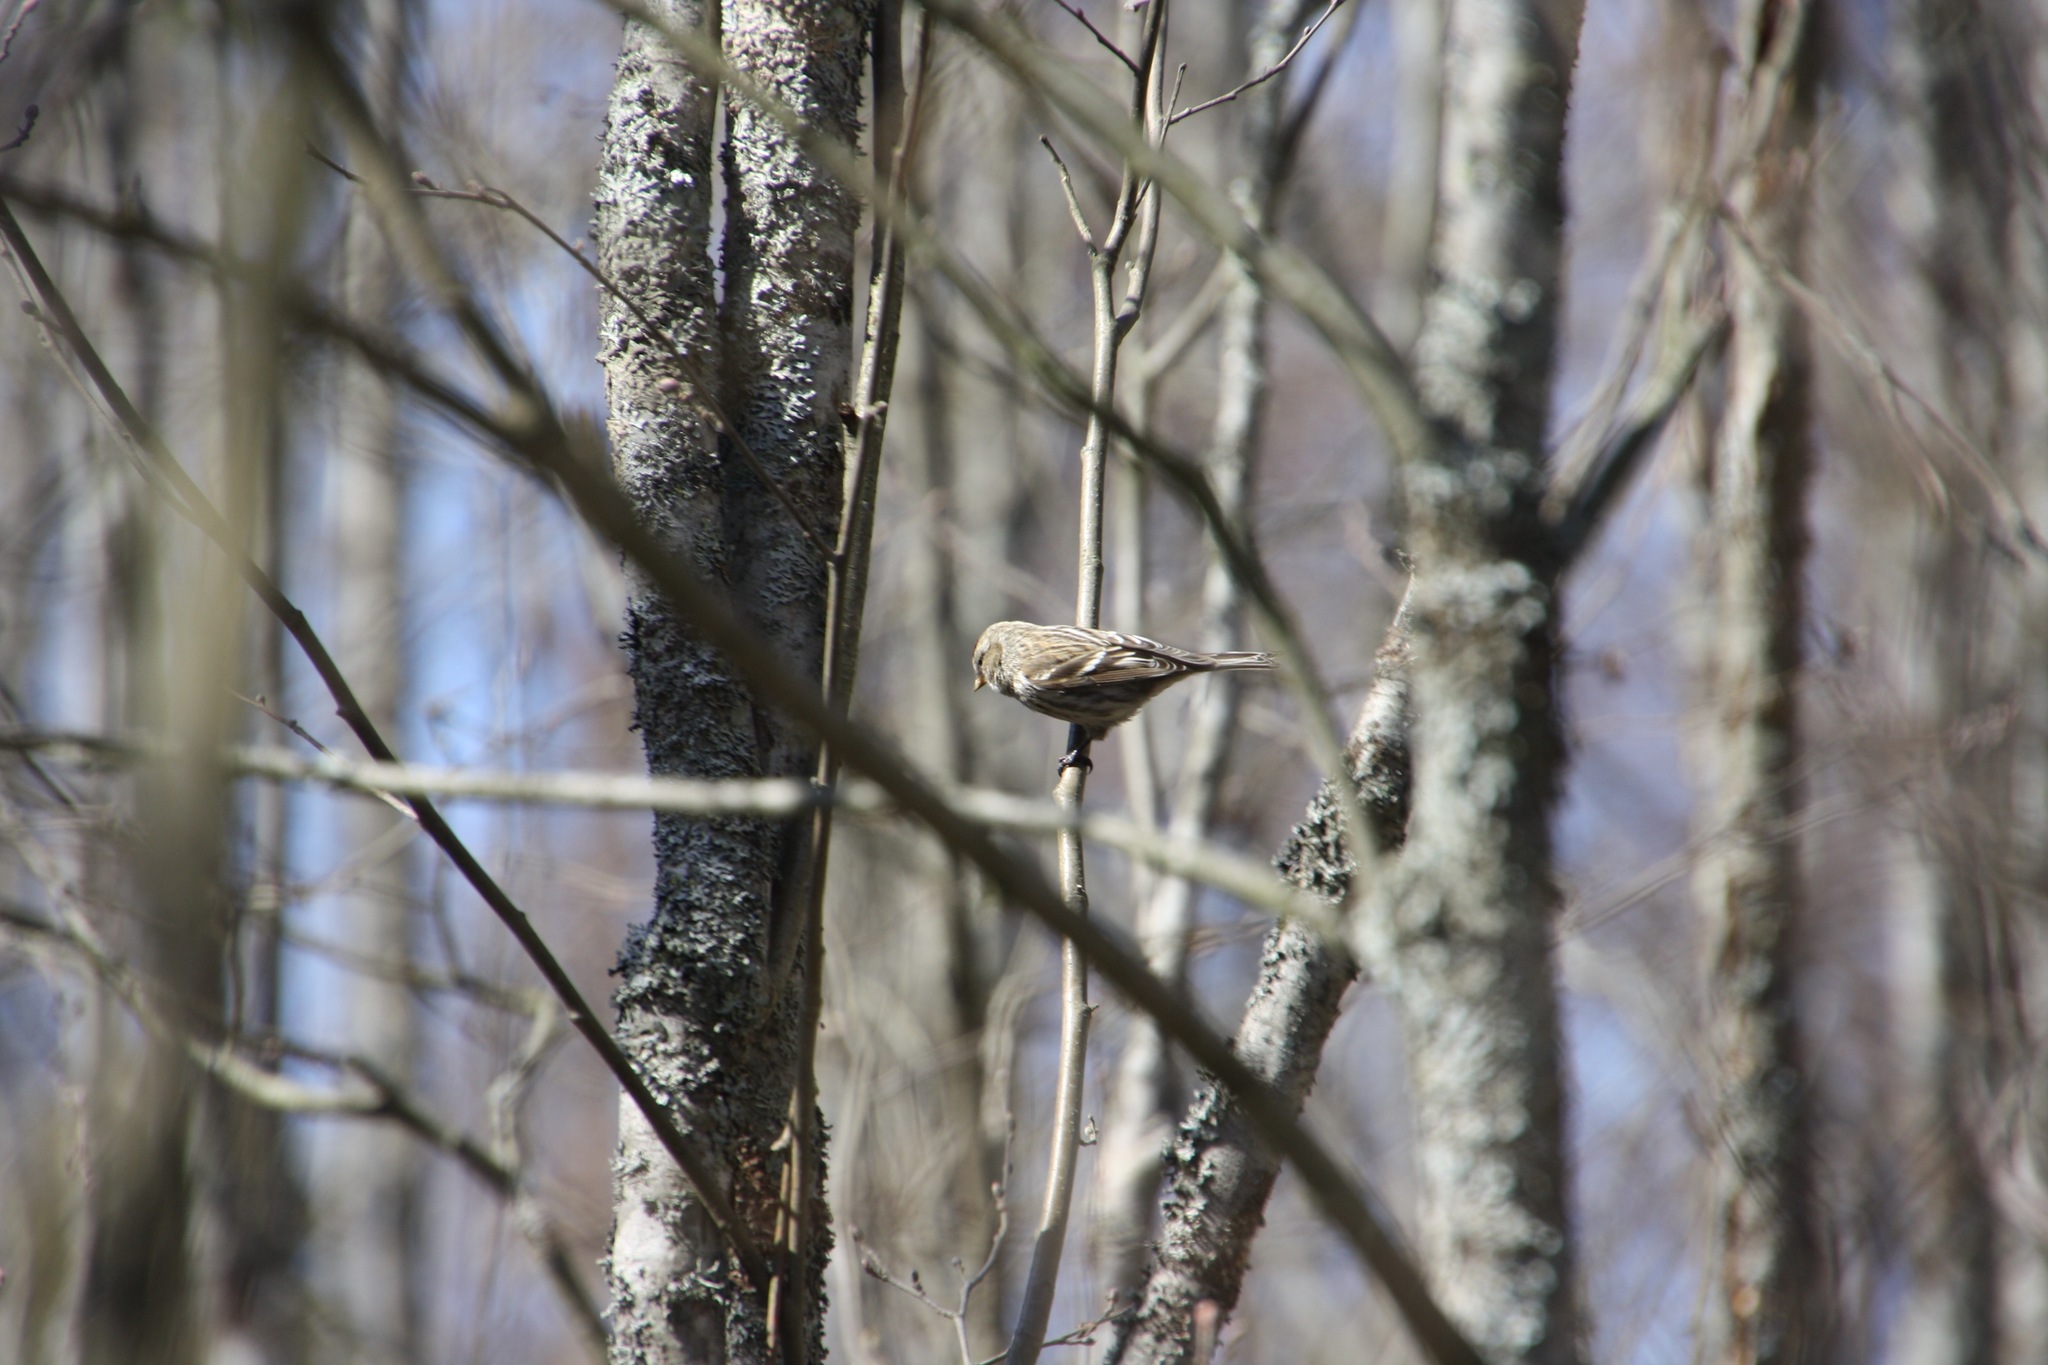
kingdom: Animalia
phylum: Chordata
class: Aves
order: Passeriformes
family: Fringillidae
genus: Acanthis
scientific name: Acanthis flammea
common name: Common redpoll
